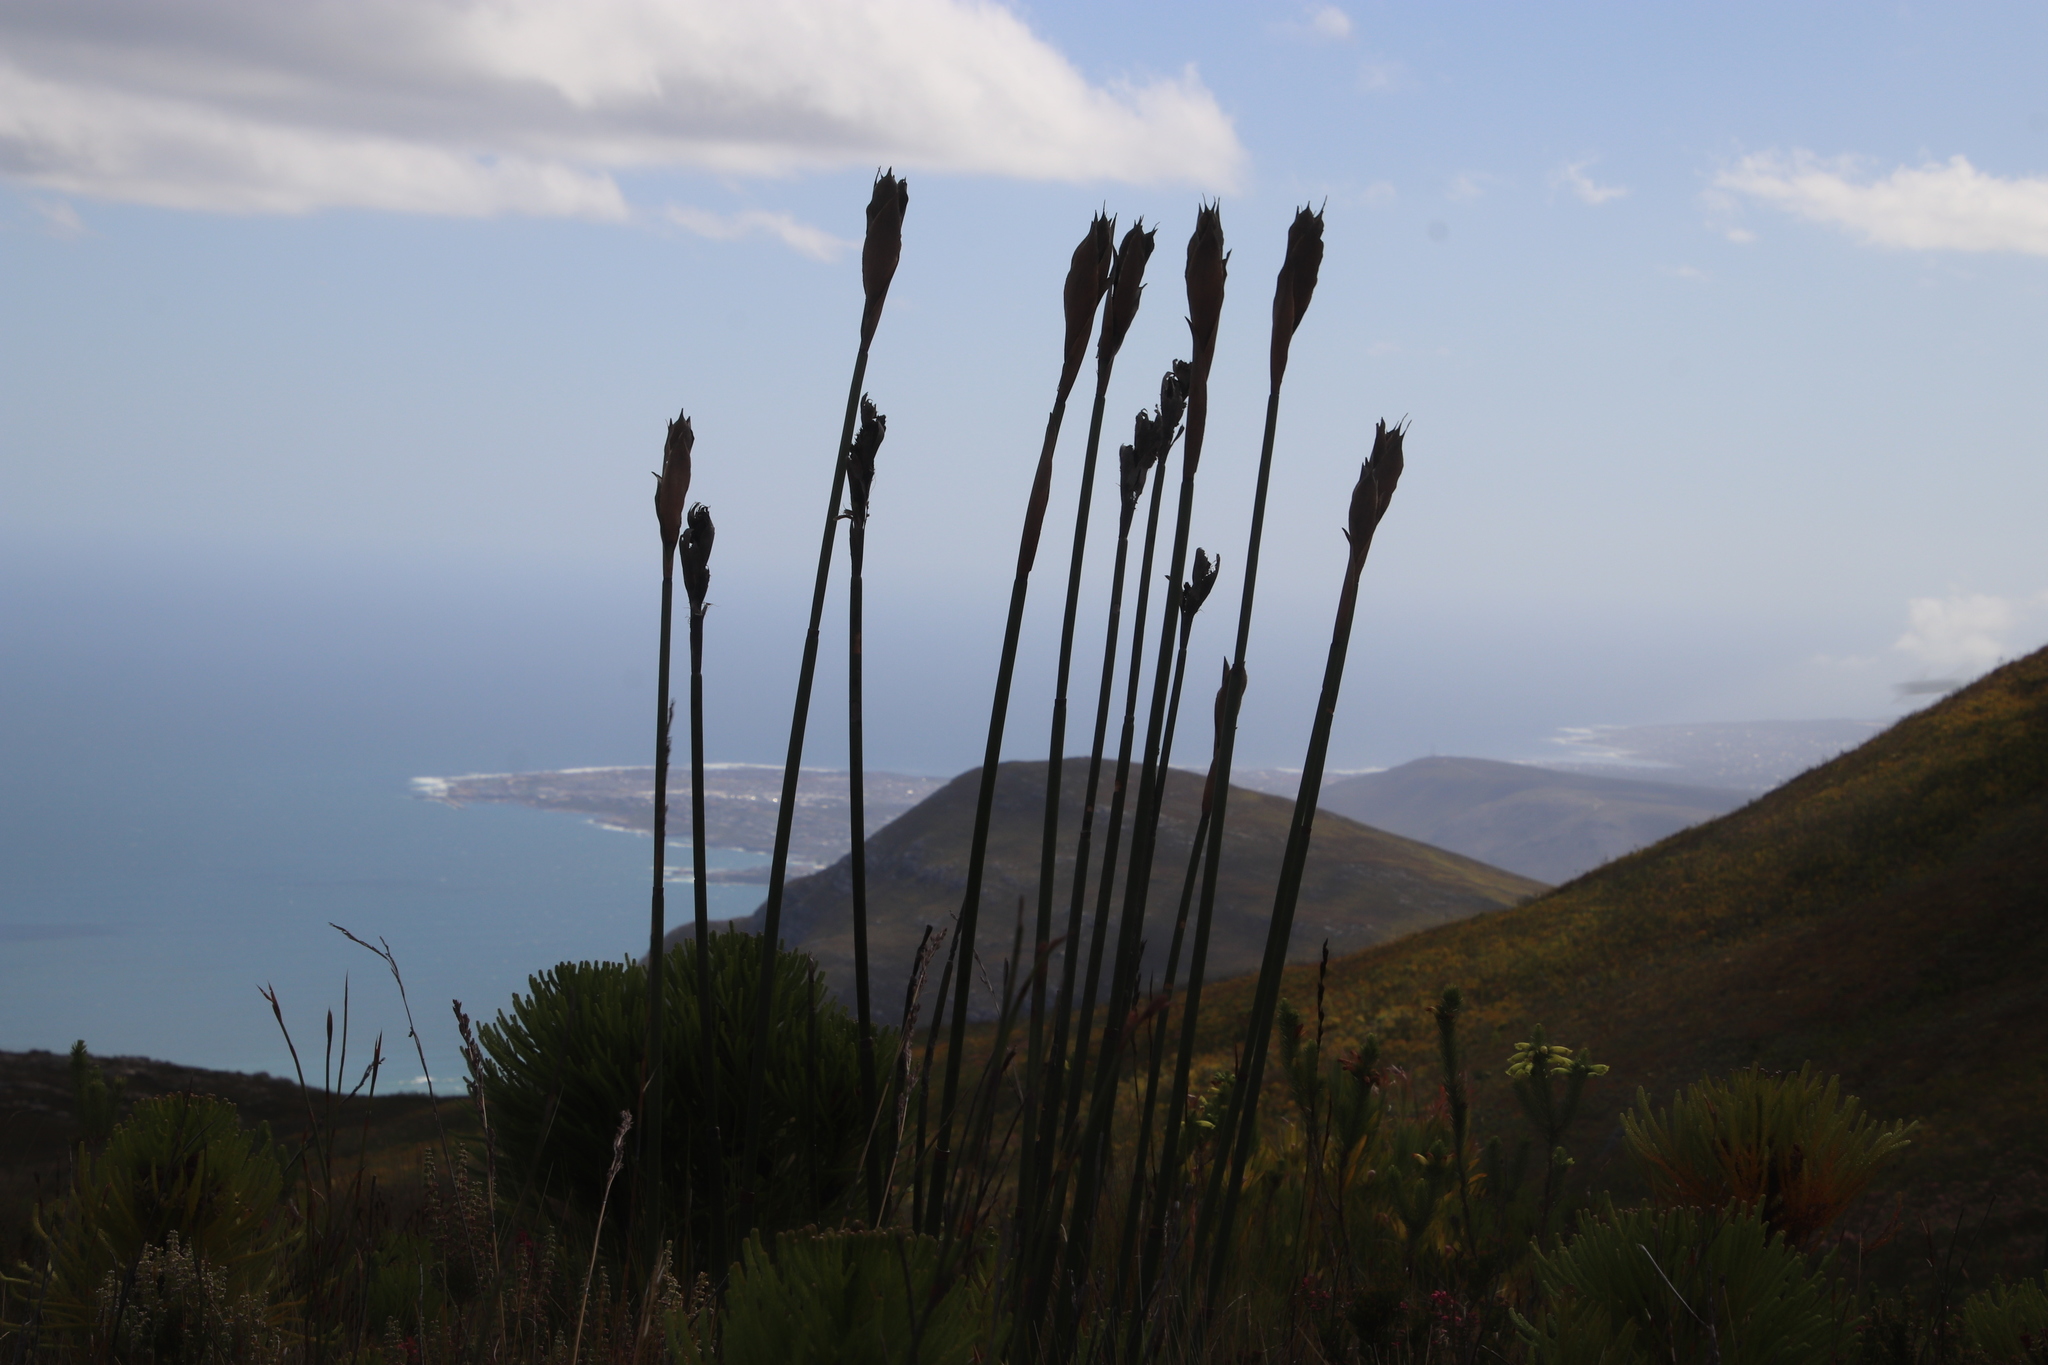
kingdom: Plantae
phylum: Tracheophyta
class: Liliopsida
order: Poales
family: Restionaceae
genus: Elegia
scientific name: Elegia mucronata
